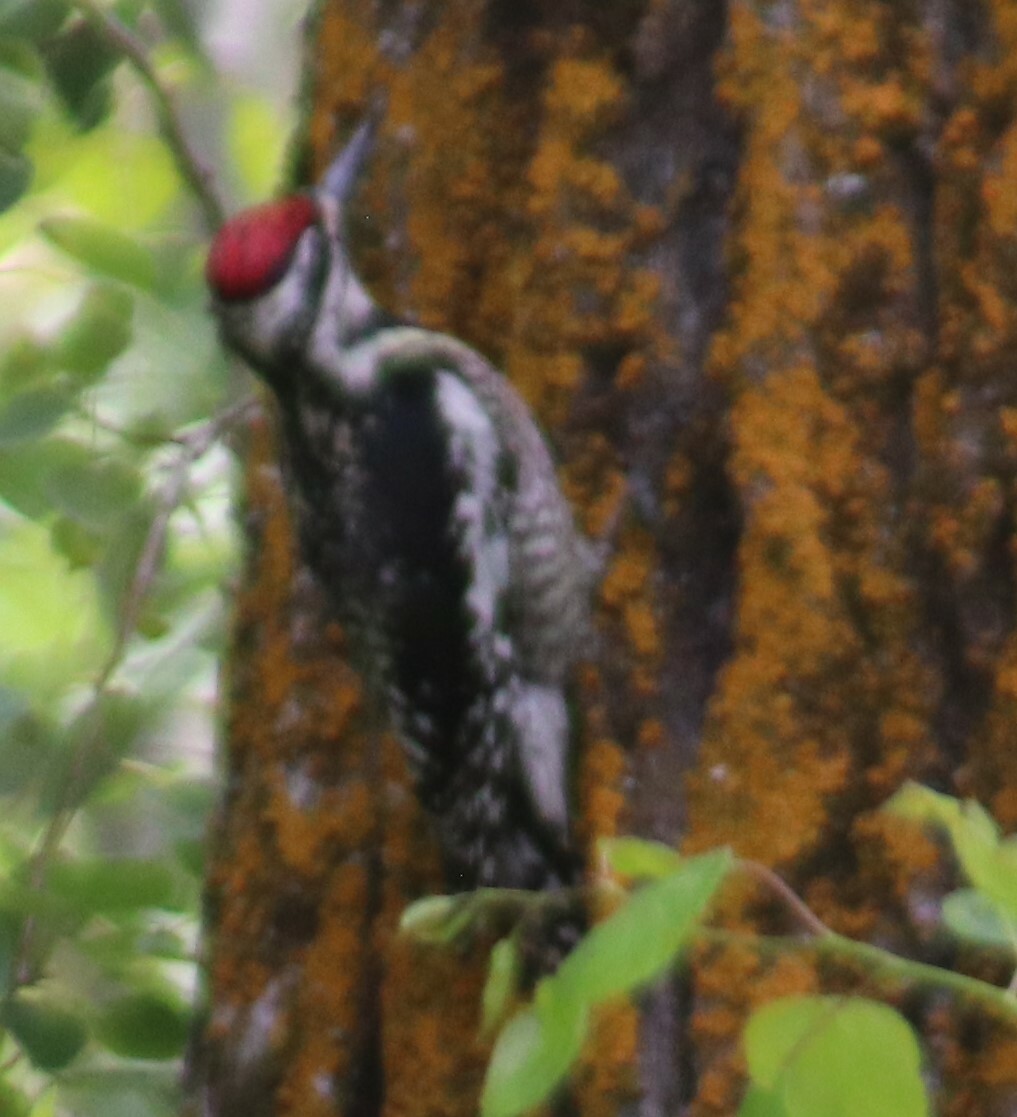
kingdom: Animalia
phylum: Chordata
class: Aves
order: Piciformes
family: Picidae
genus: Sphyrapicus
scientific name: Sphyrapicus varius
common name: Yellow-bellied sapsucker
